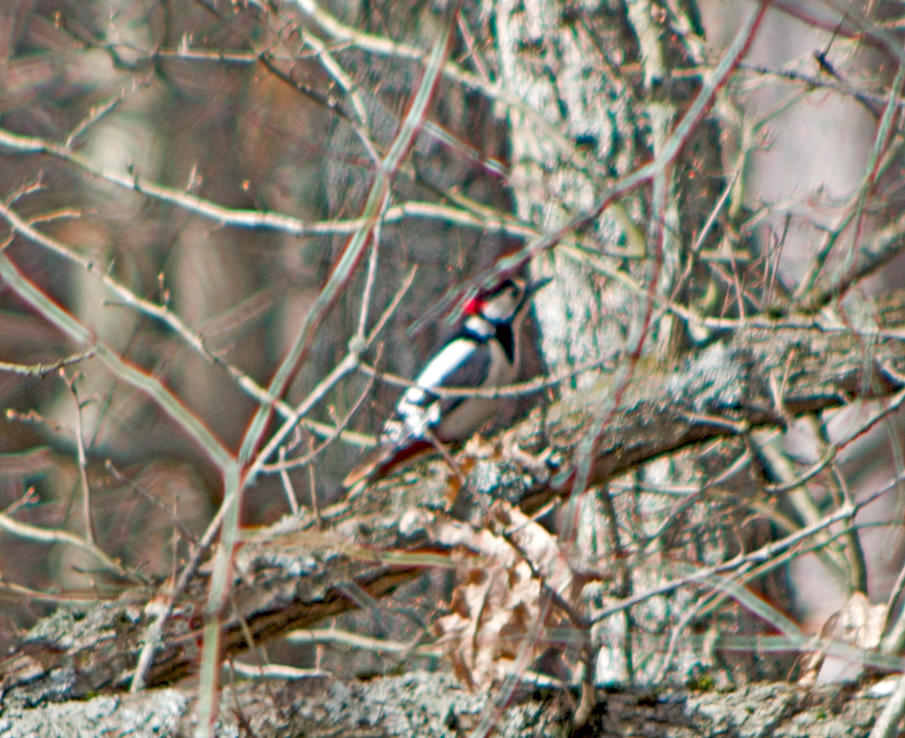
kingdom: Animalia
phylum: Chordata
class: Aves
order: Piciformes
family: Picidae
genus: Dendrocopos
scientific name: Dendrocopos major
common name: Great spotted woodpecker
